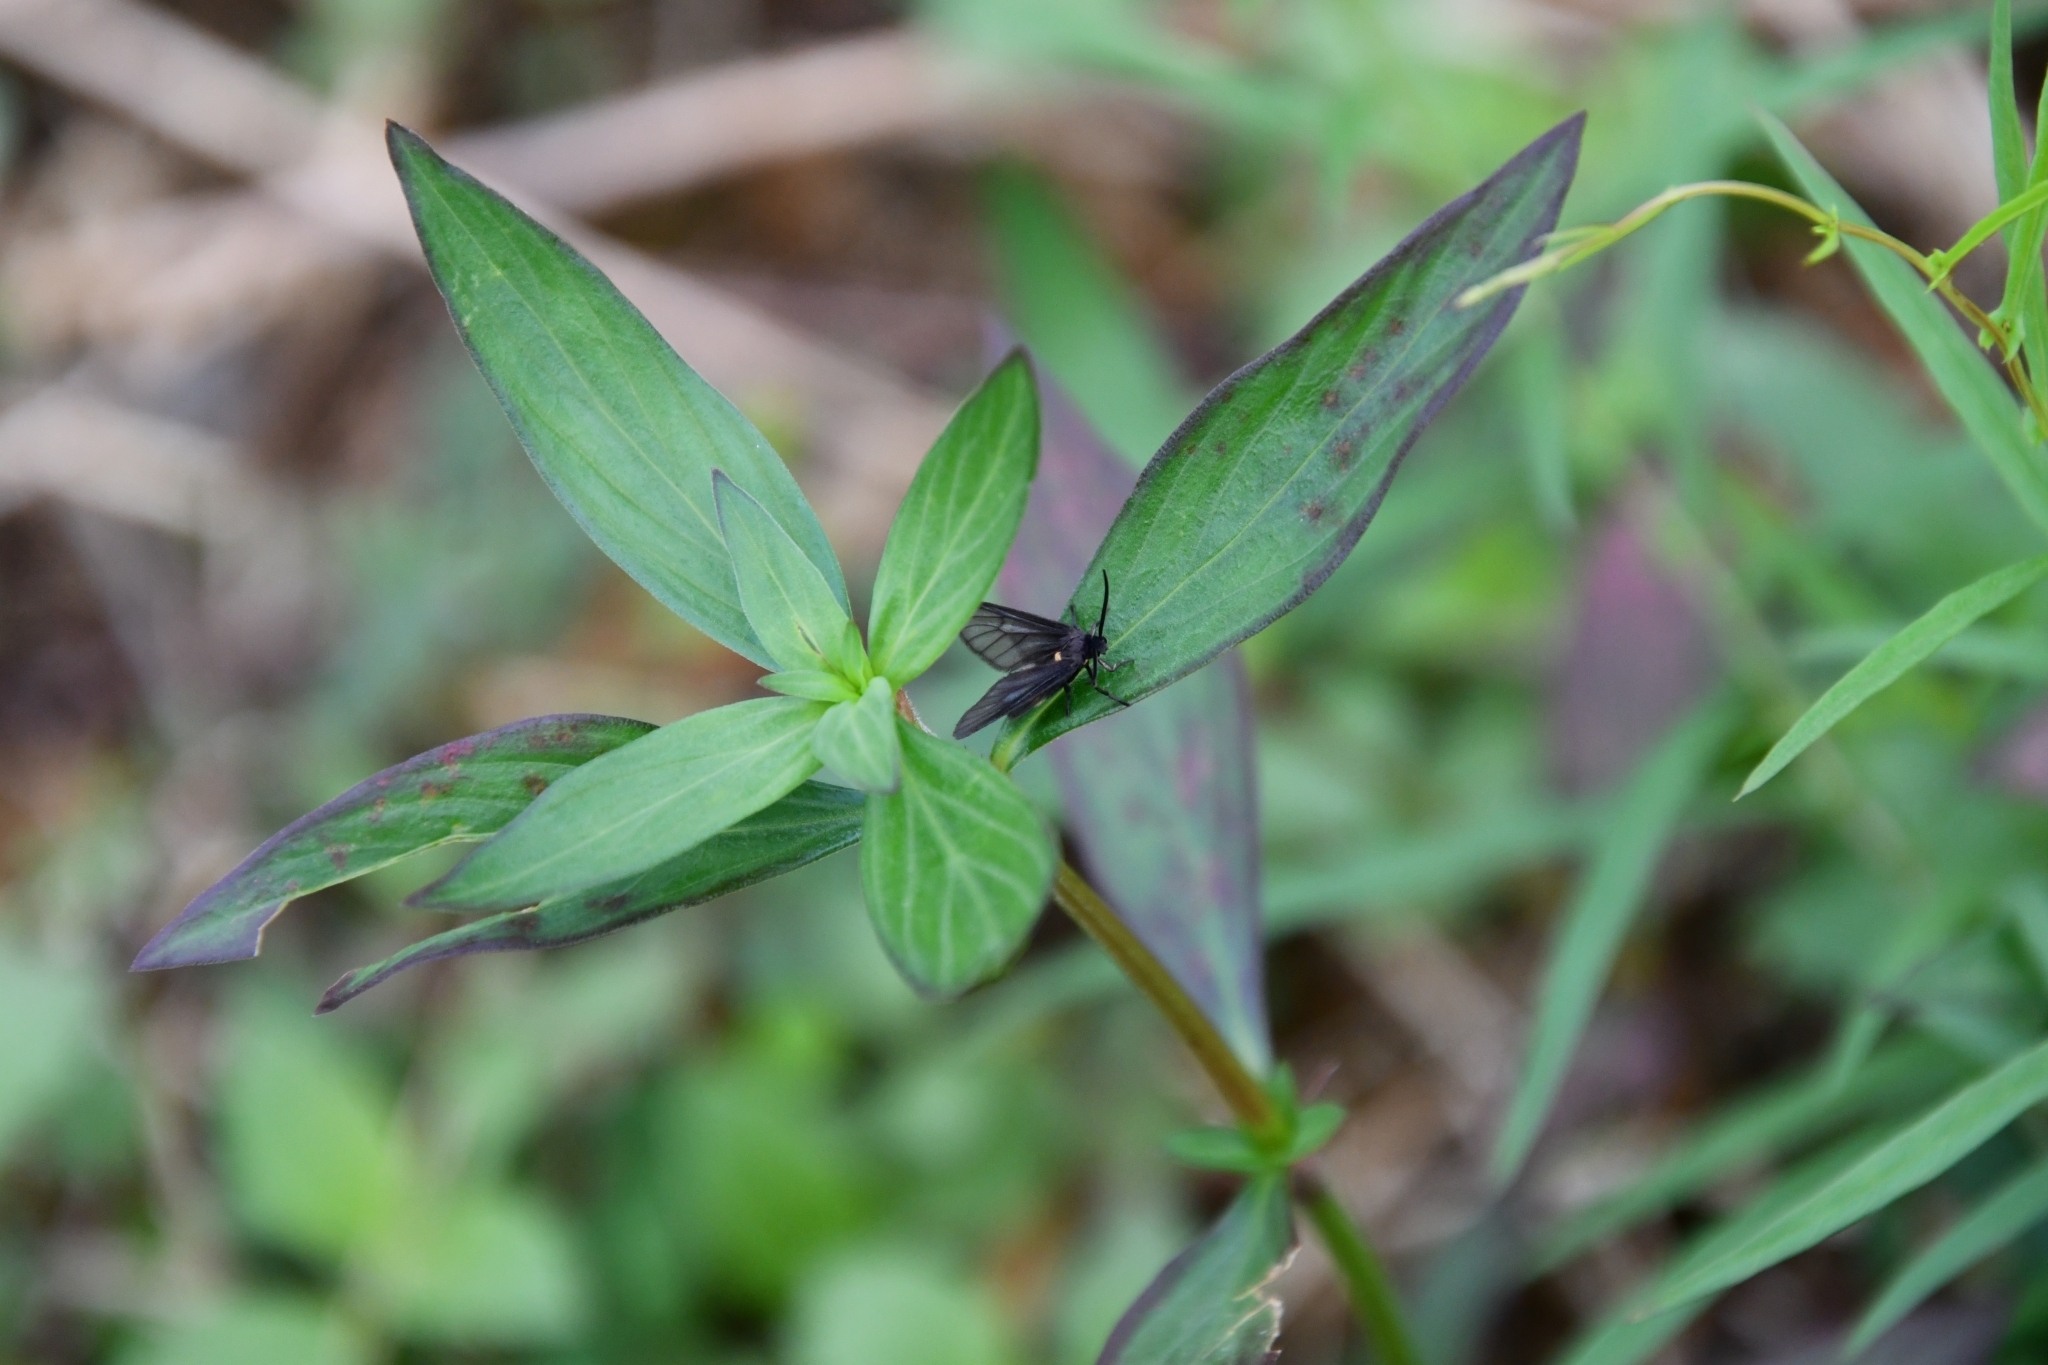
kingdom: Animalia
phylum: Arthropoda
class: Insecta
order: Lepidoptera
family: Erebidae
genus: Psichotoe
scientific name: Psichotoe duvauceli
